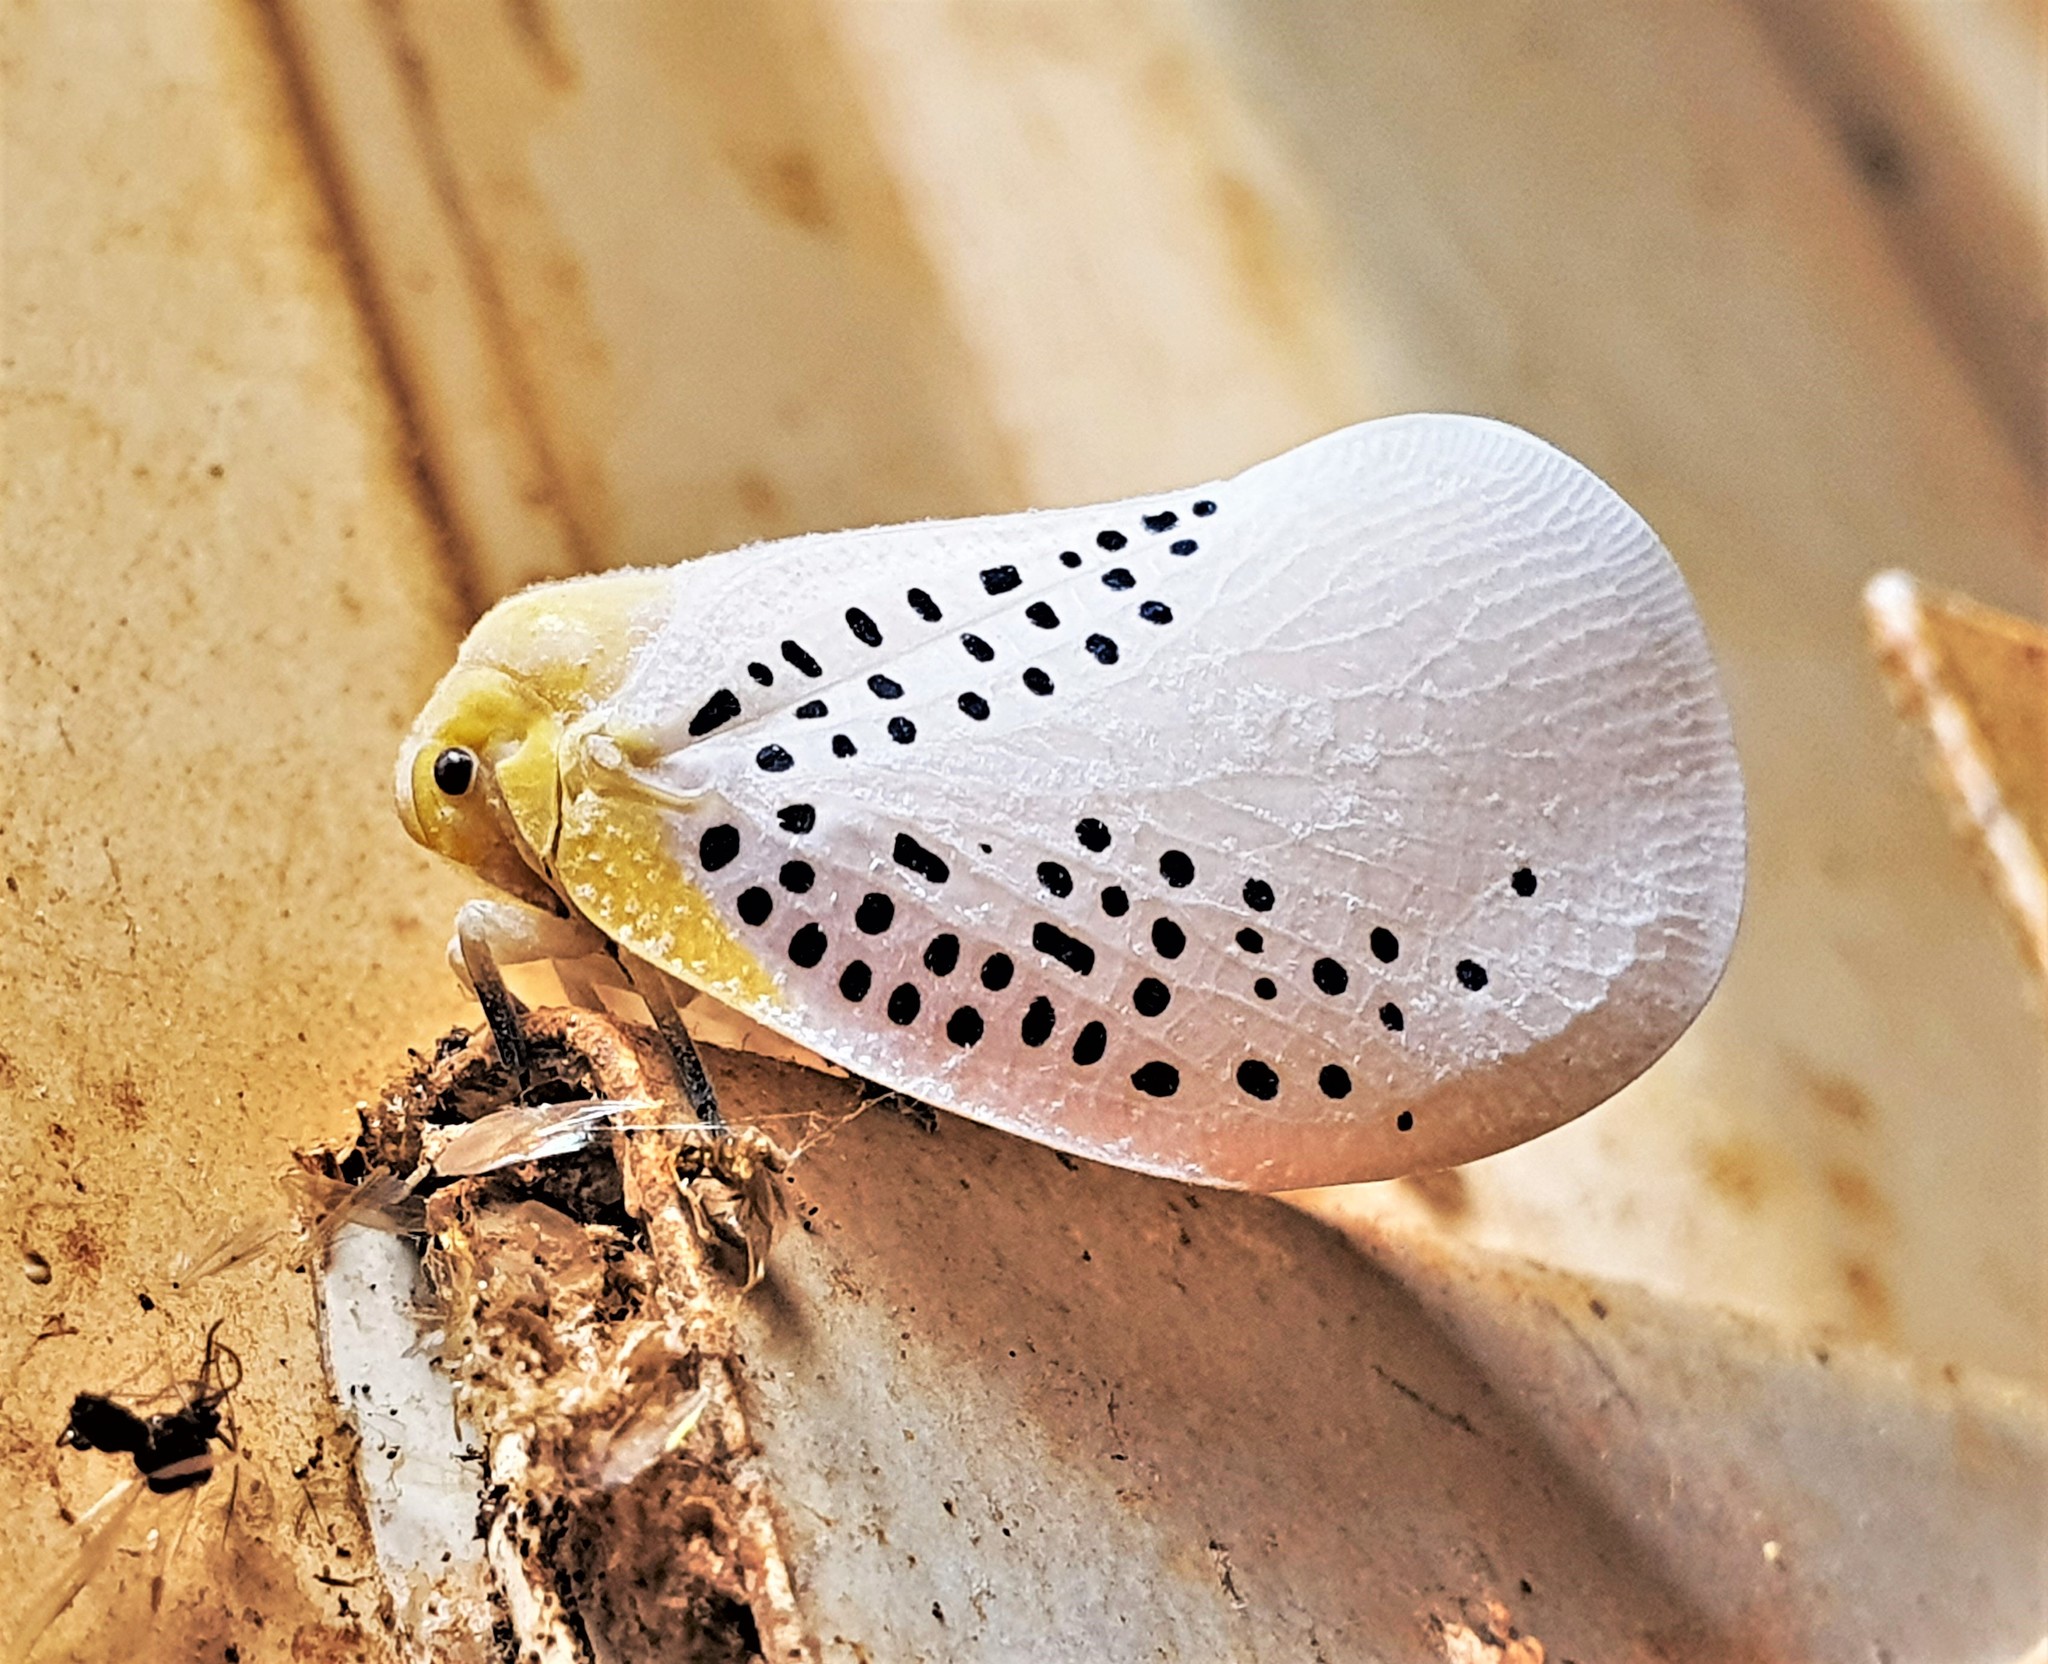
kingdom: Animalia
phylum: Arthropoda
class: Insecta
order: Hemiptera
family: Flatidae
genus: Poekilloptera
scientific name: Poekilloptera phalaenoides
